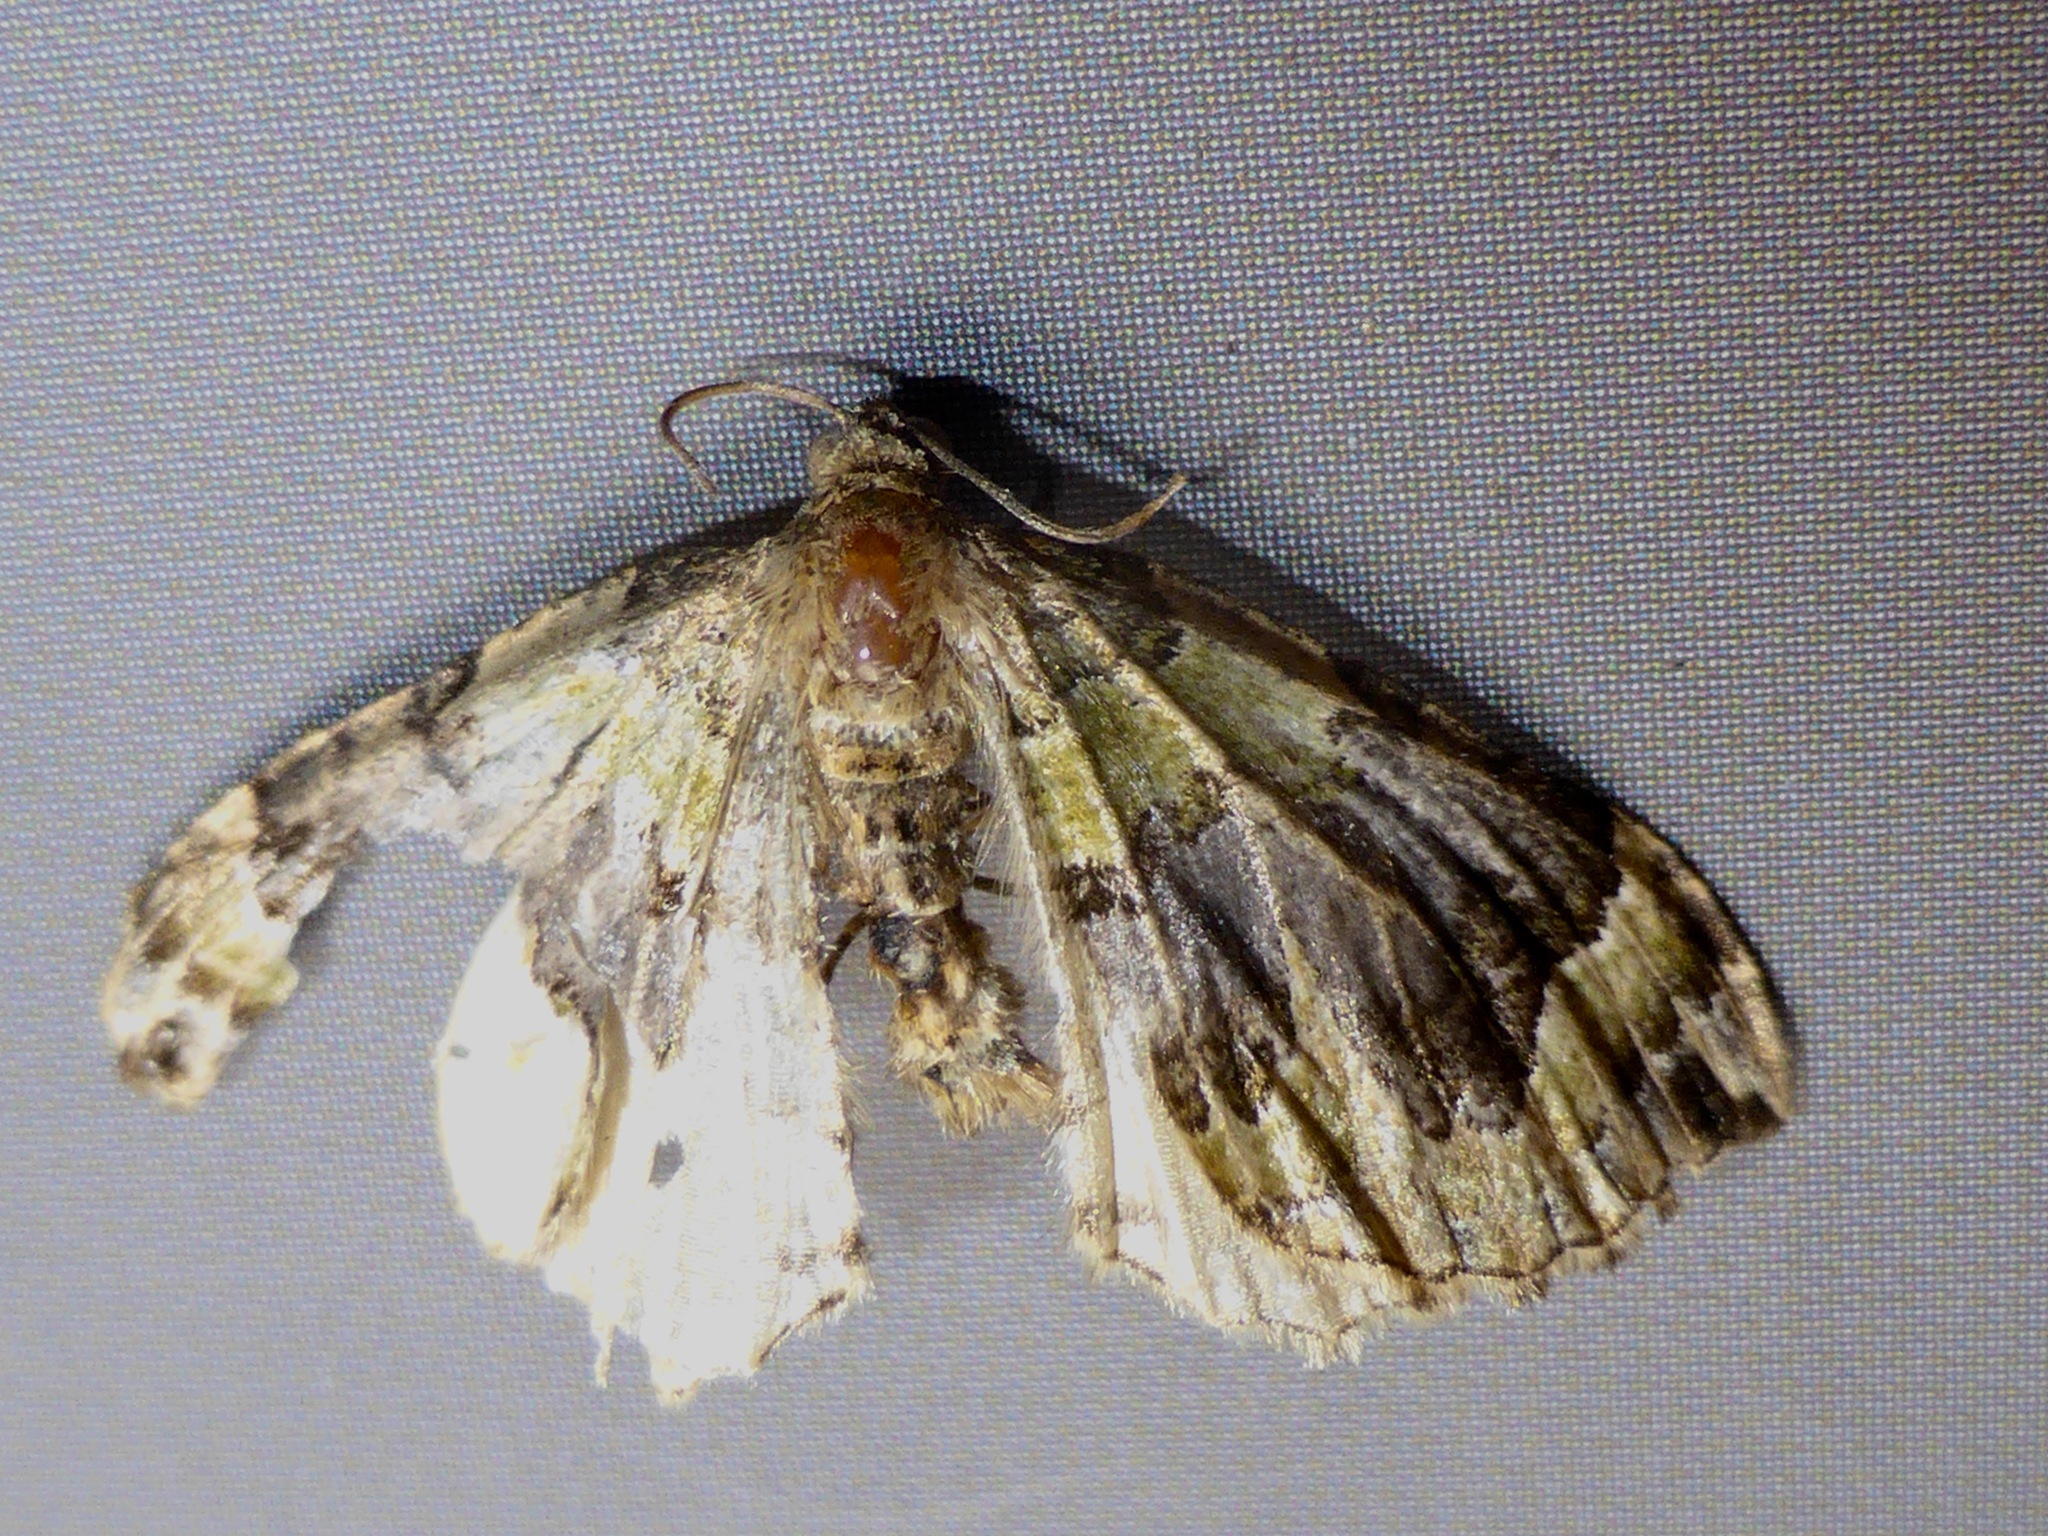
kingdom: Animalia
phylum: Arthropoda
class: Insecta
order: Lepidoptera
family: Geometridae
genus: Hydriomena
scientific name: Hydriomena rixata
